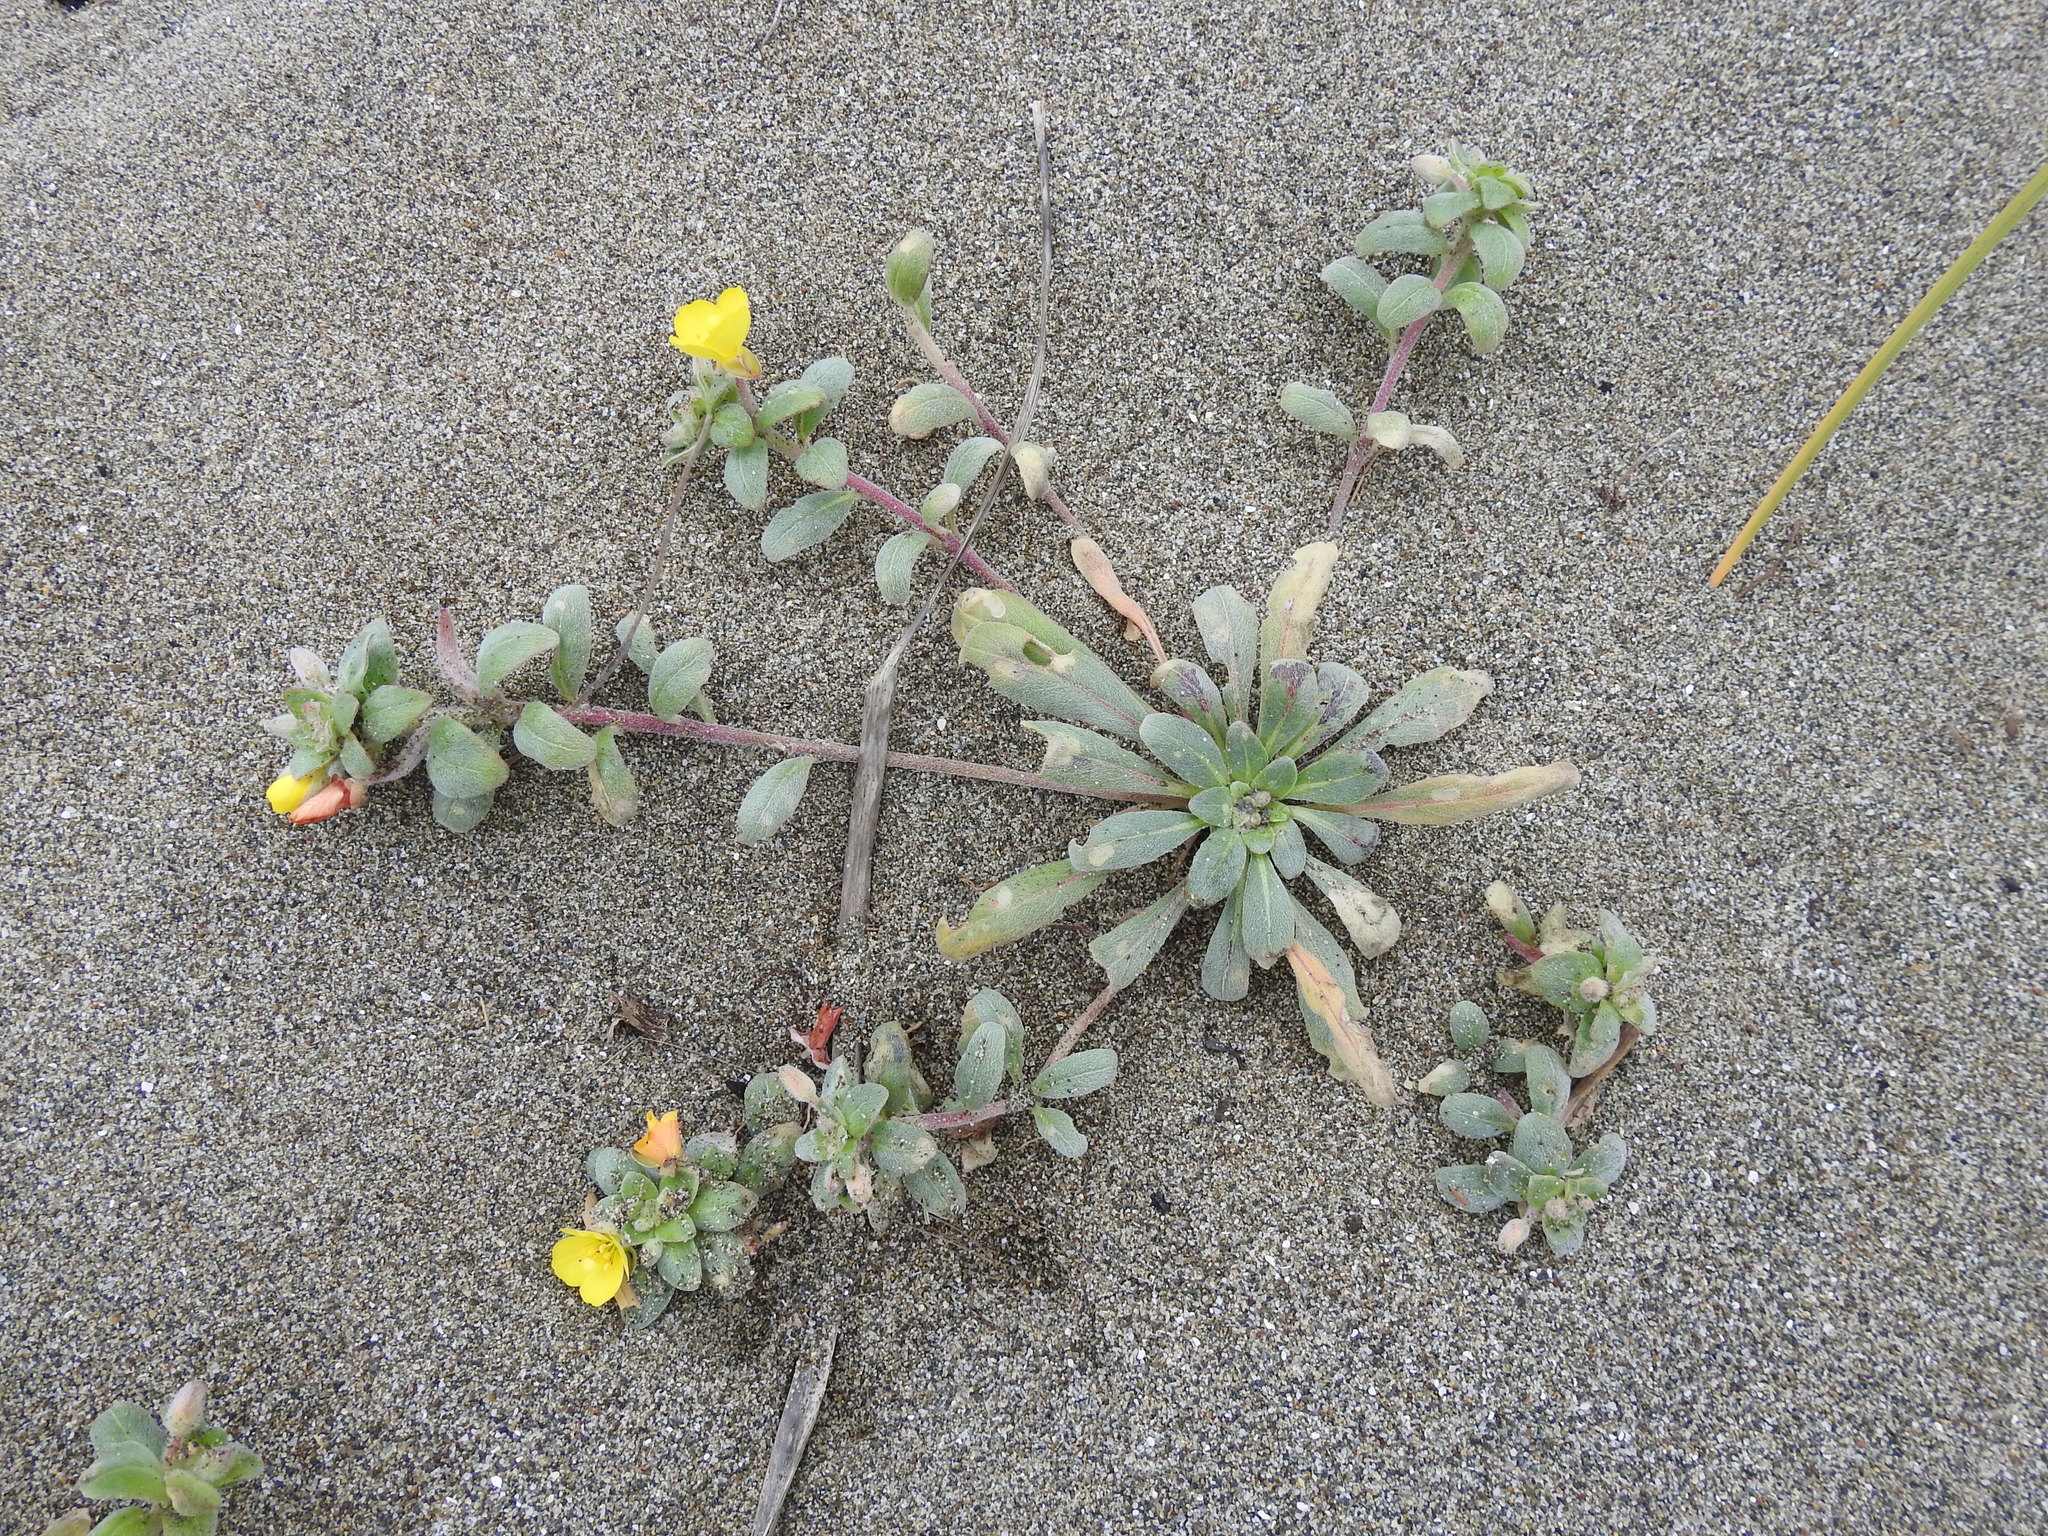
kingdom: Plantae
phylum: Tracheophyta
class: Magnoliopsida
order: Myrtales
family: Onagraceae
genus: Camissoniopsis
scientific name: Camissoniopsis cheiranthifolia
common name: Beach suncup
